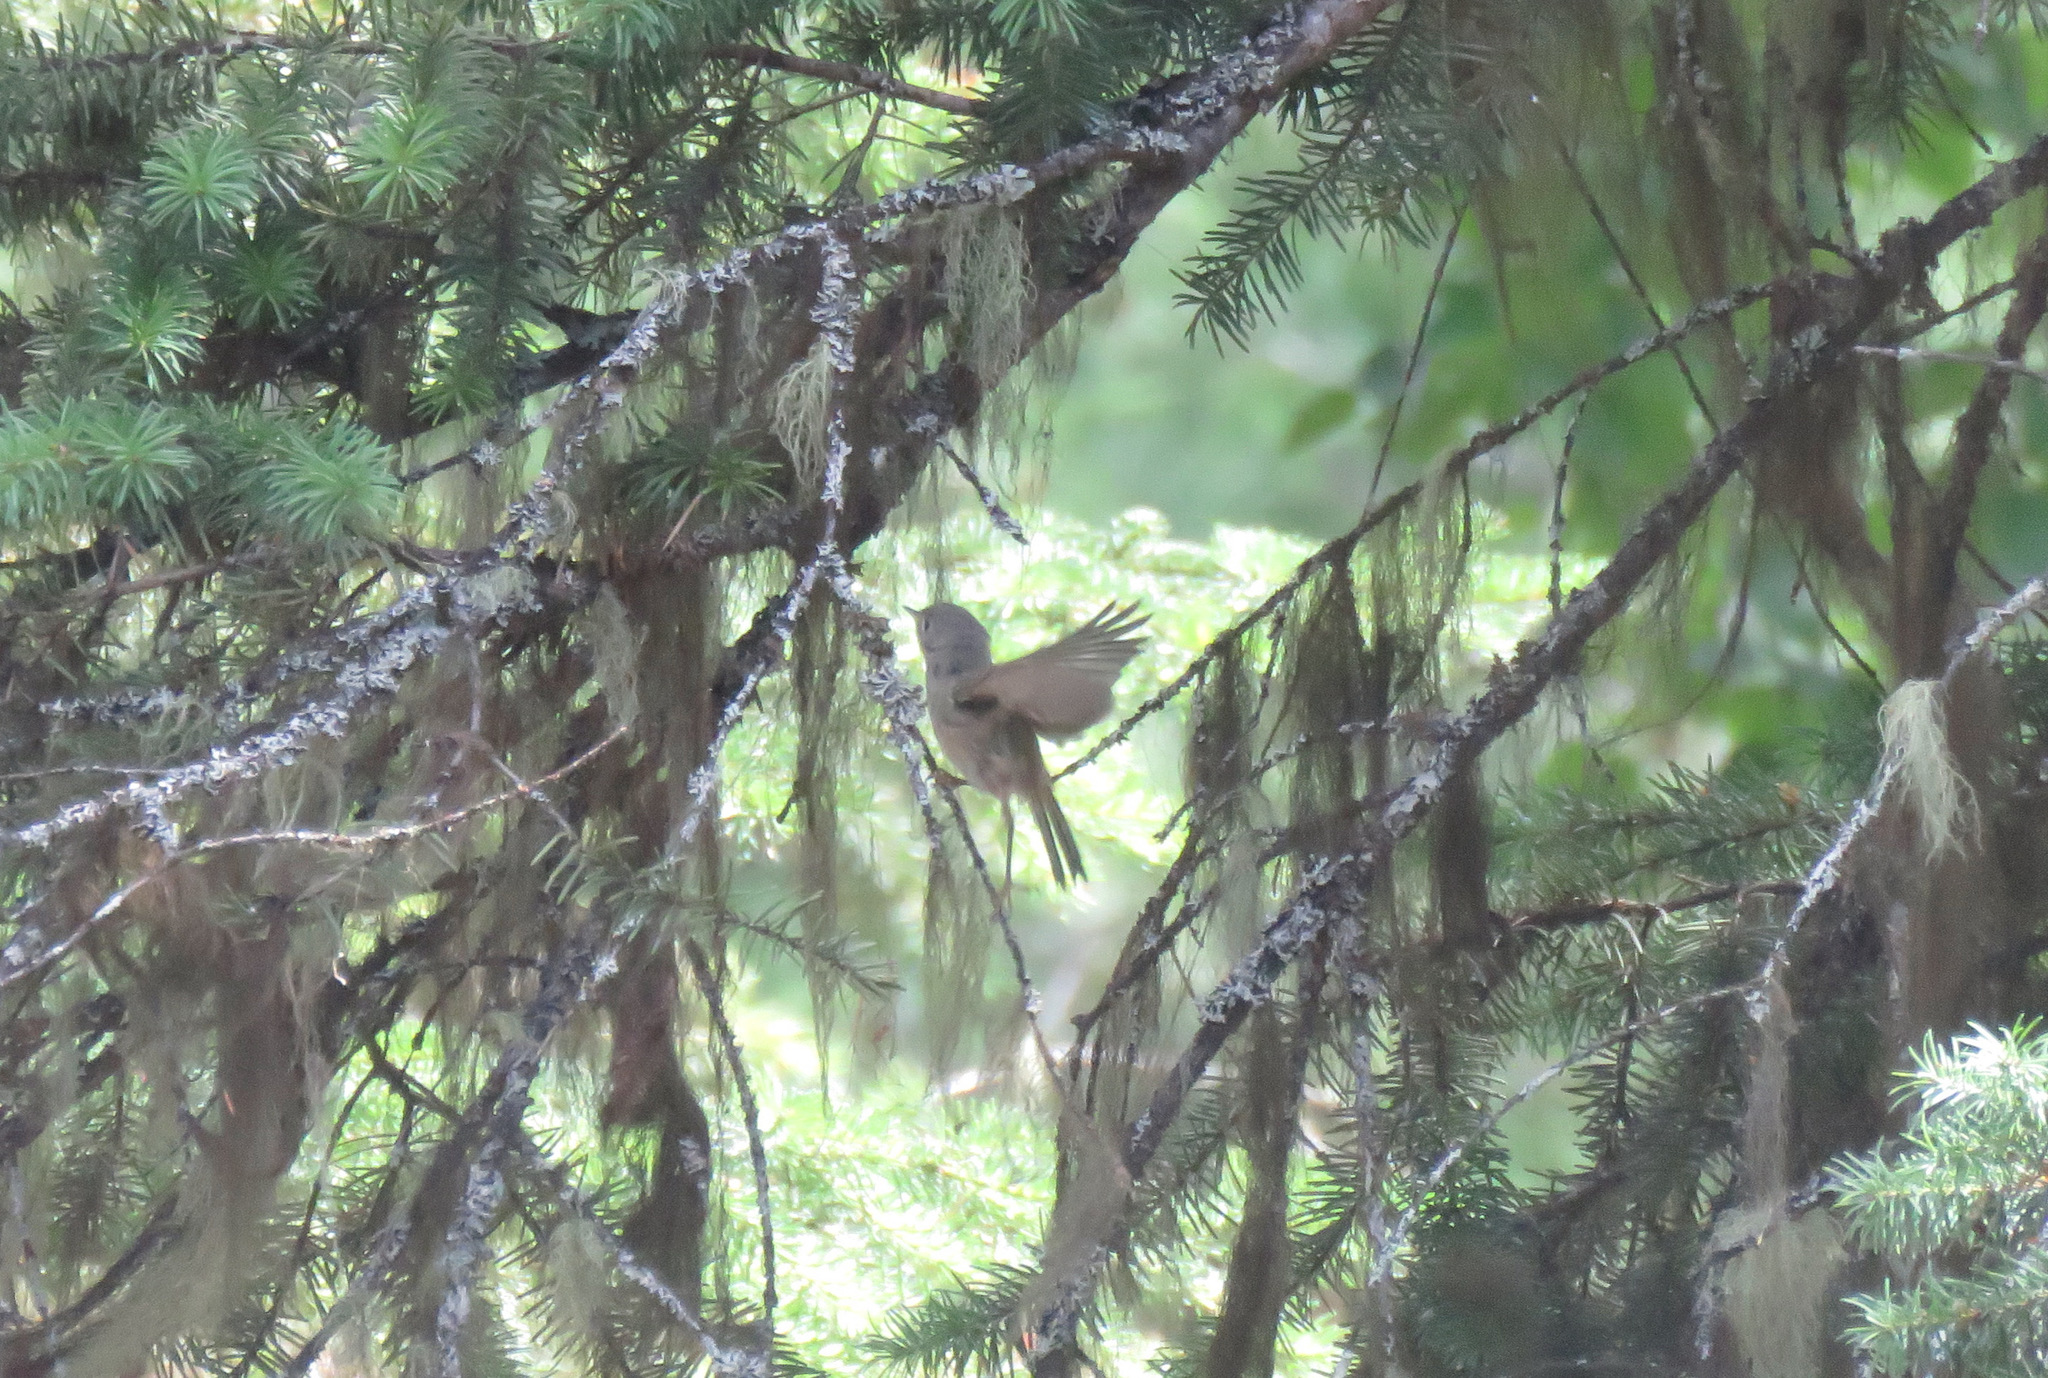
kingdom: Animalia
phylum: Chordata
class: Aves
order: Passeriformes
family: Regulidae
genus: Regulus
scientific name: Regulus calendula
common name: Ruby-crowned kinglet
